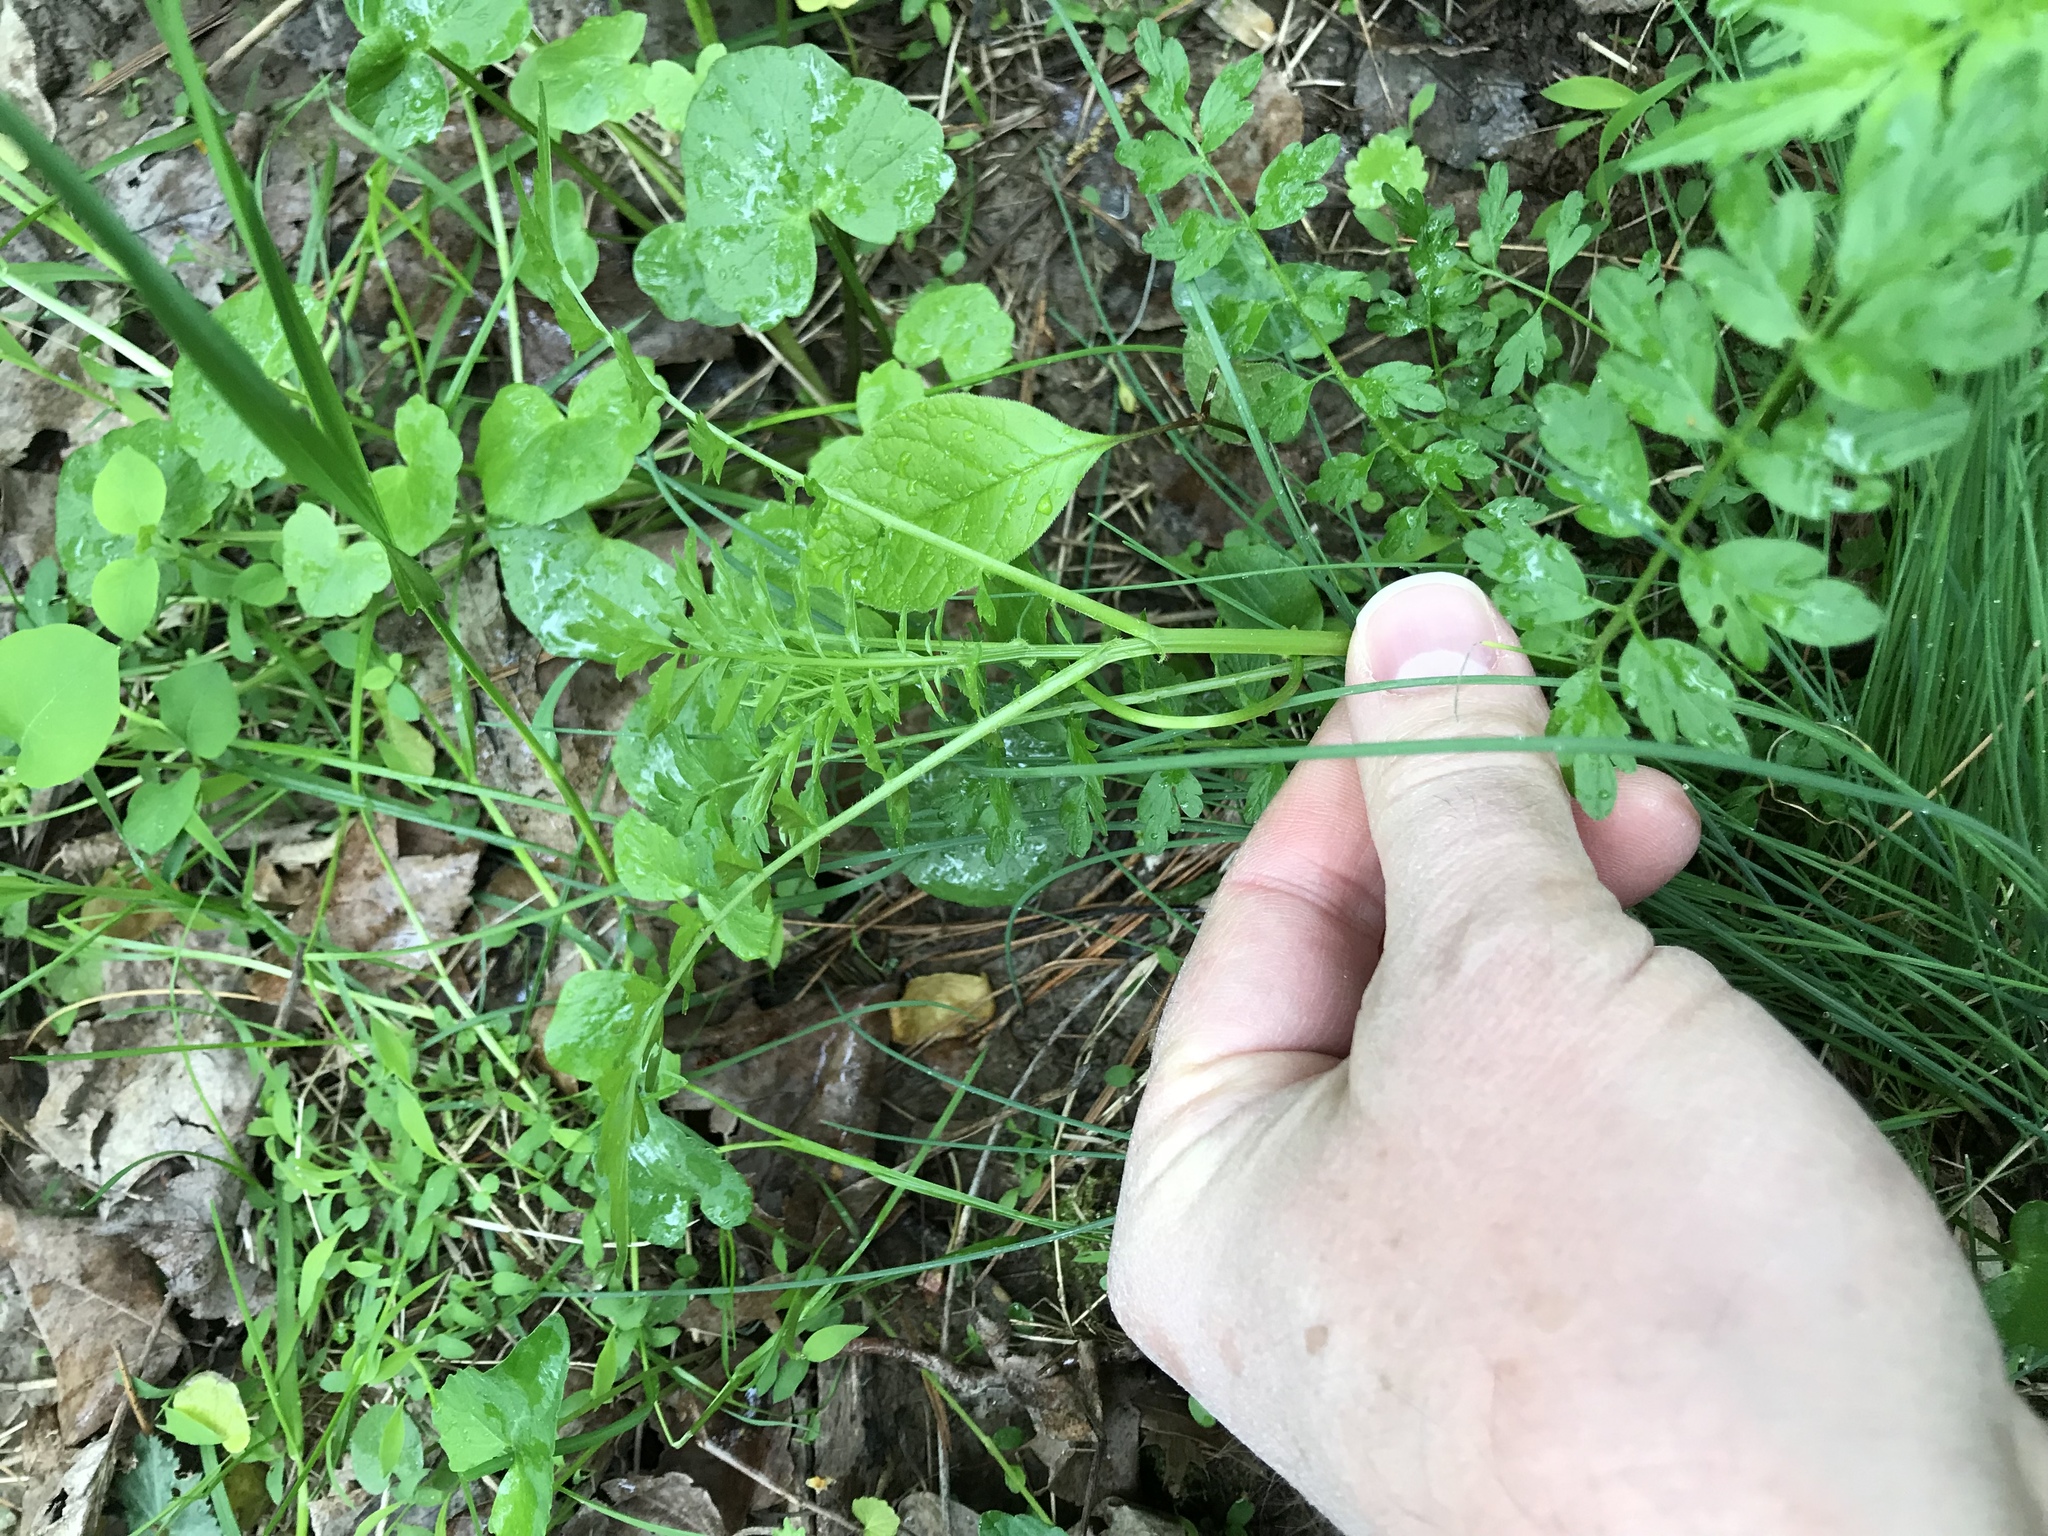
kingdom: Plantae
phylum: Tracheophyta
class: Magnoliopsida
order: Brassicales
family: Brassicaceae
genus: Cardamine
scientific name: Cardamine impatiens
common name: Narrow-leaved bitter-cress
